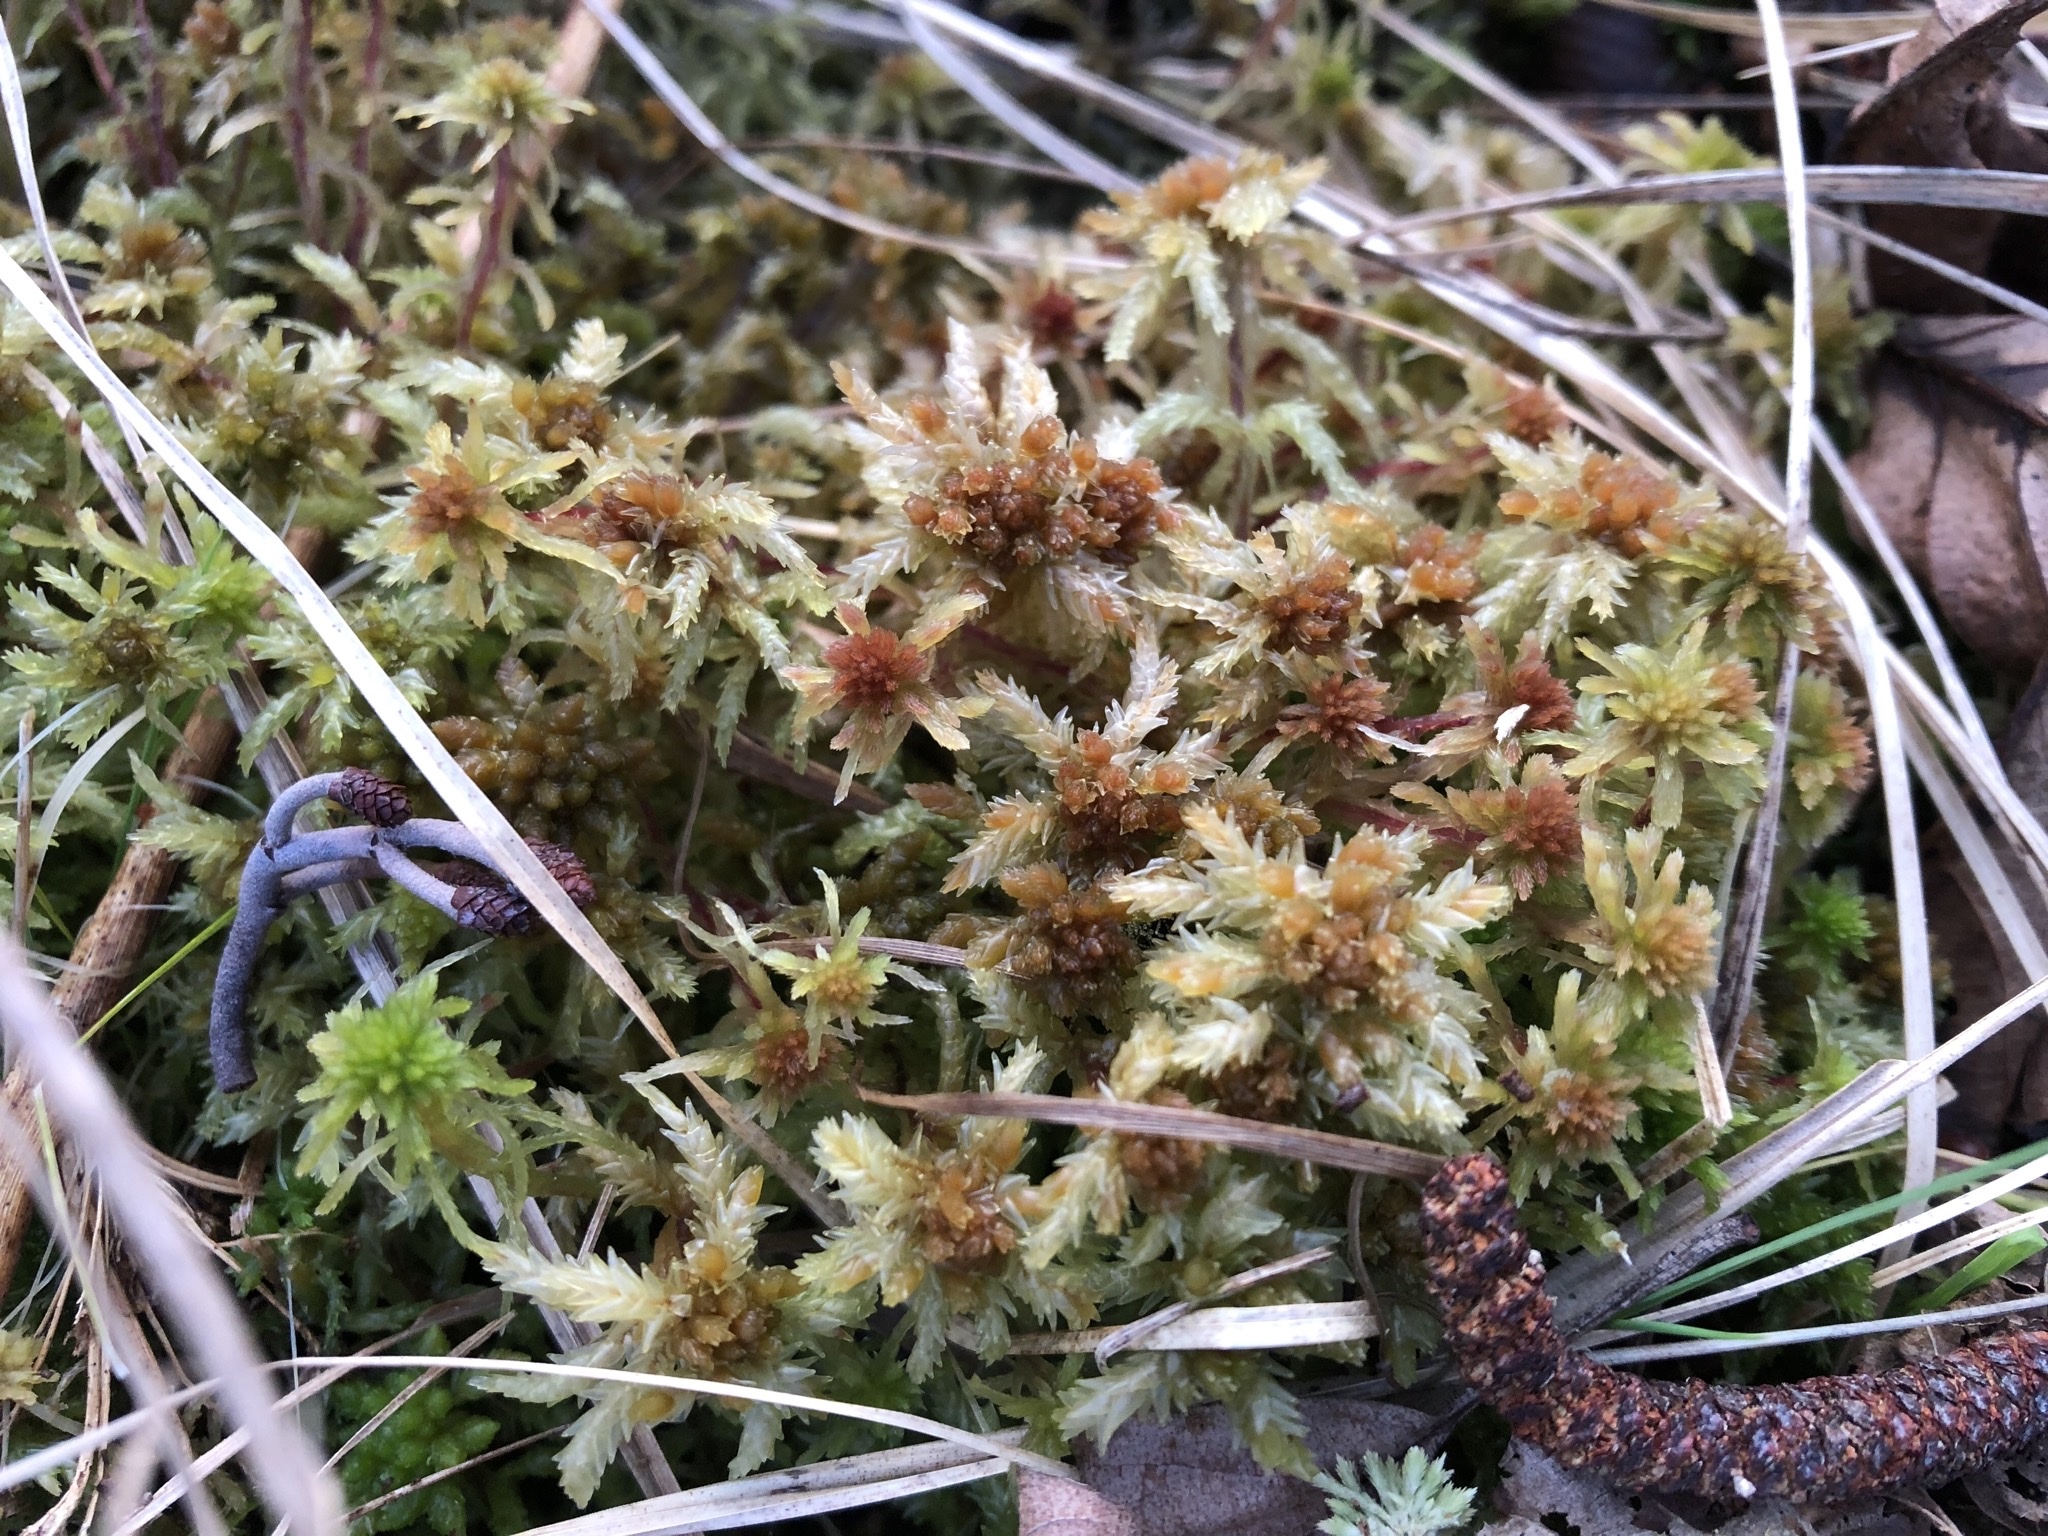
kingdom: Plantae
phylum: Bryophyta
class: Sphagnopsida
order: Sphagnales
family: Sphagnaceae
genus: Sphagnum
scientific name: Sphagnum palustre
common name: Blunt-leaved bog-moss
